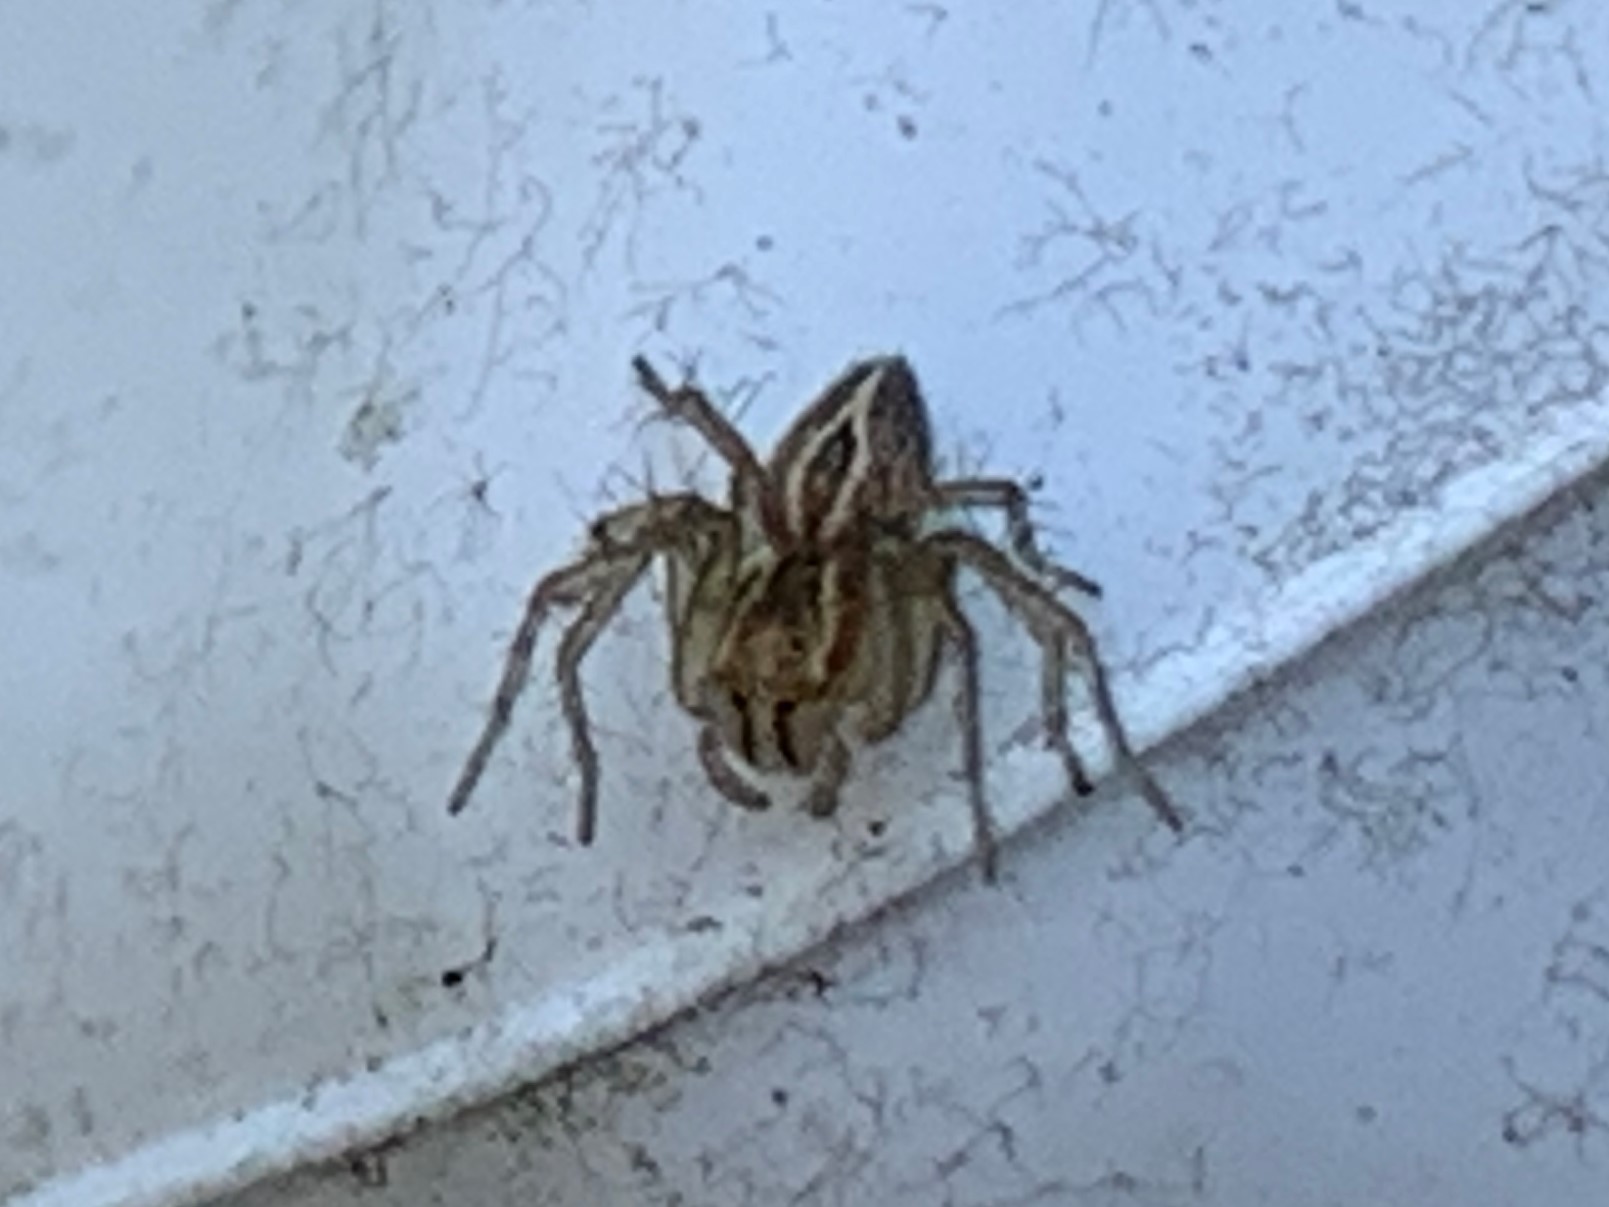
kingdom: Animalia
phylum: Arthropoda
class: Arachnida
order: Araneae
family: Oxyopidae
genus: Oxyopes
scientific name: Oxyopes salticus
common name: Lynx spiders
